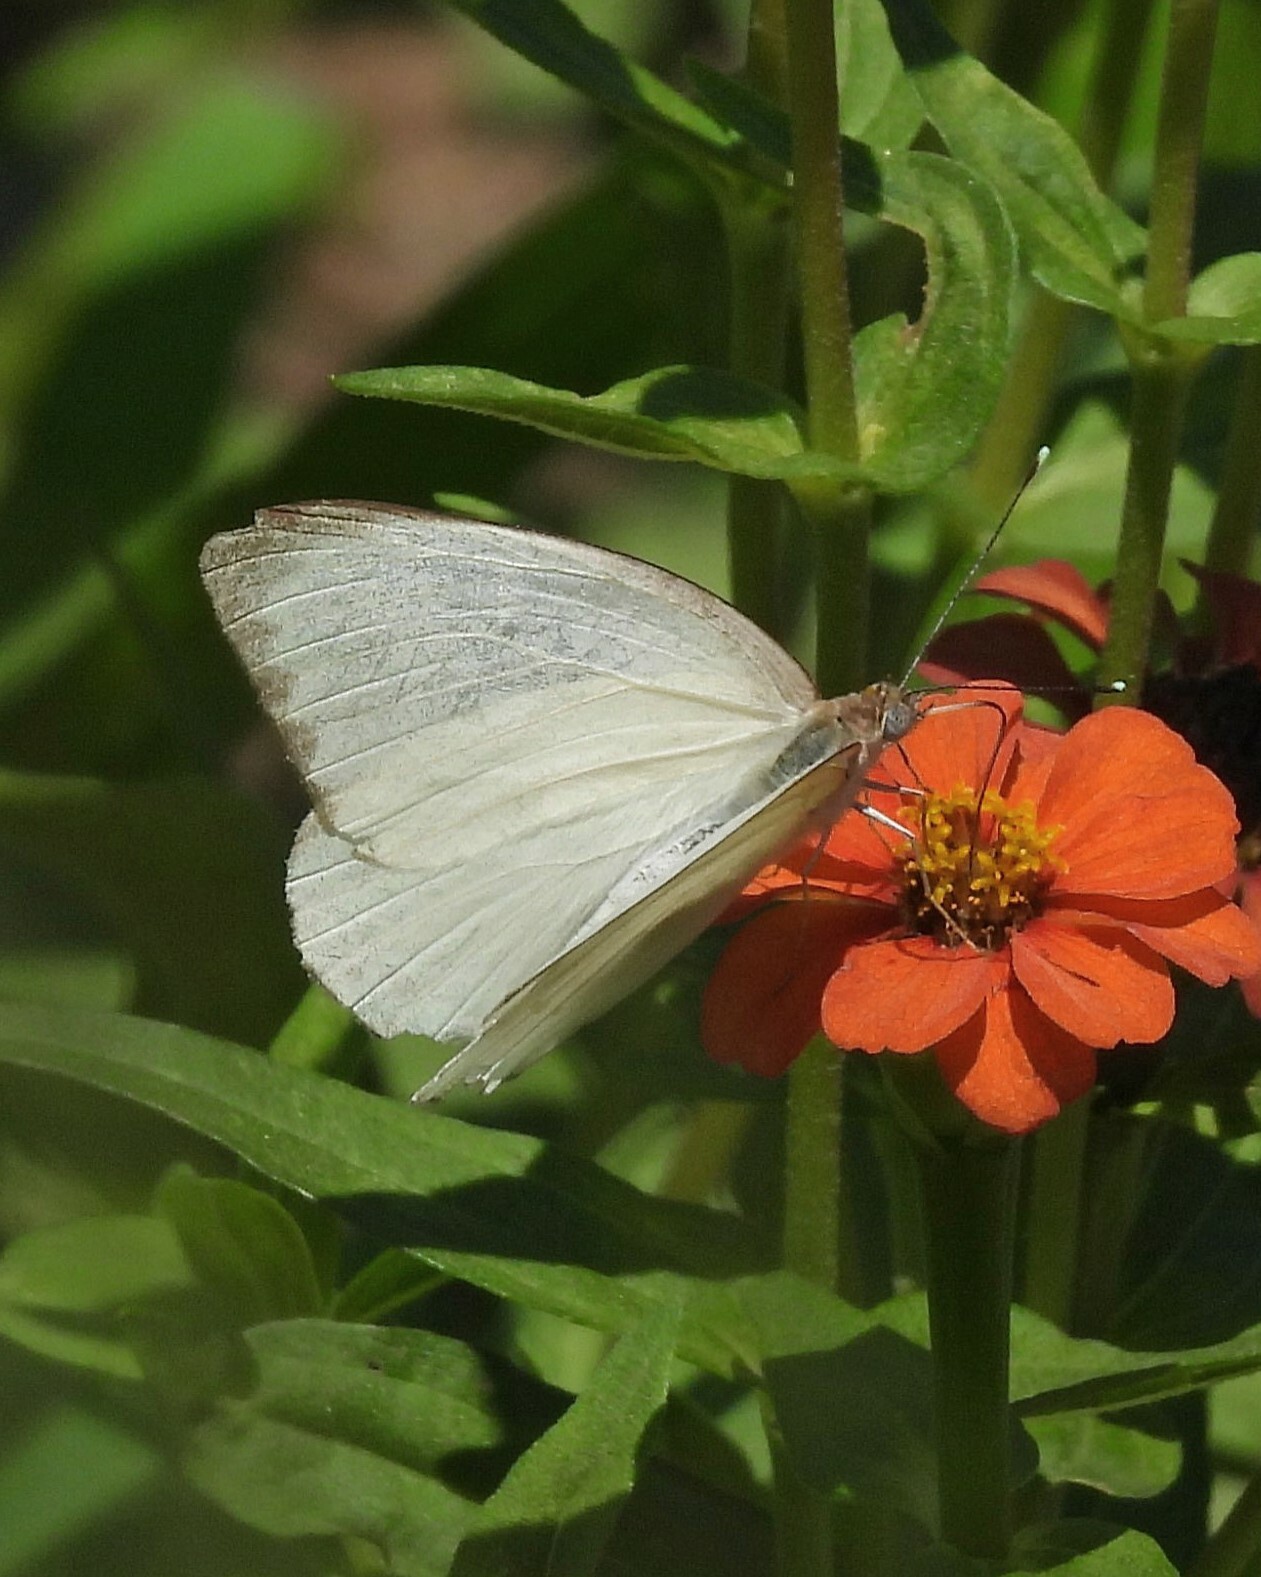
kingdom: Animalia
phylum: Arthropoda
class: Insecta
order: Lepidoptera
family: Pieridae
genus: Ascia
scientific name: Ascia monuste
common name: Great southern white
